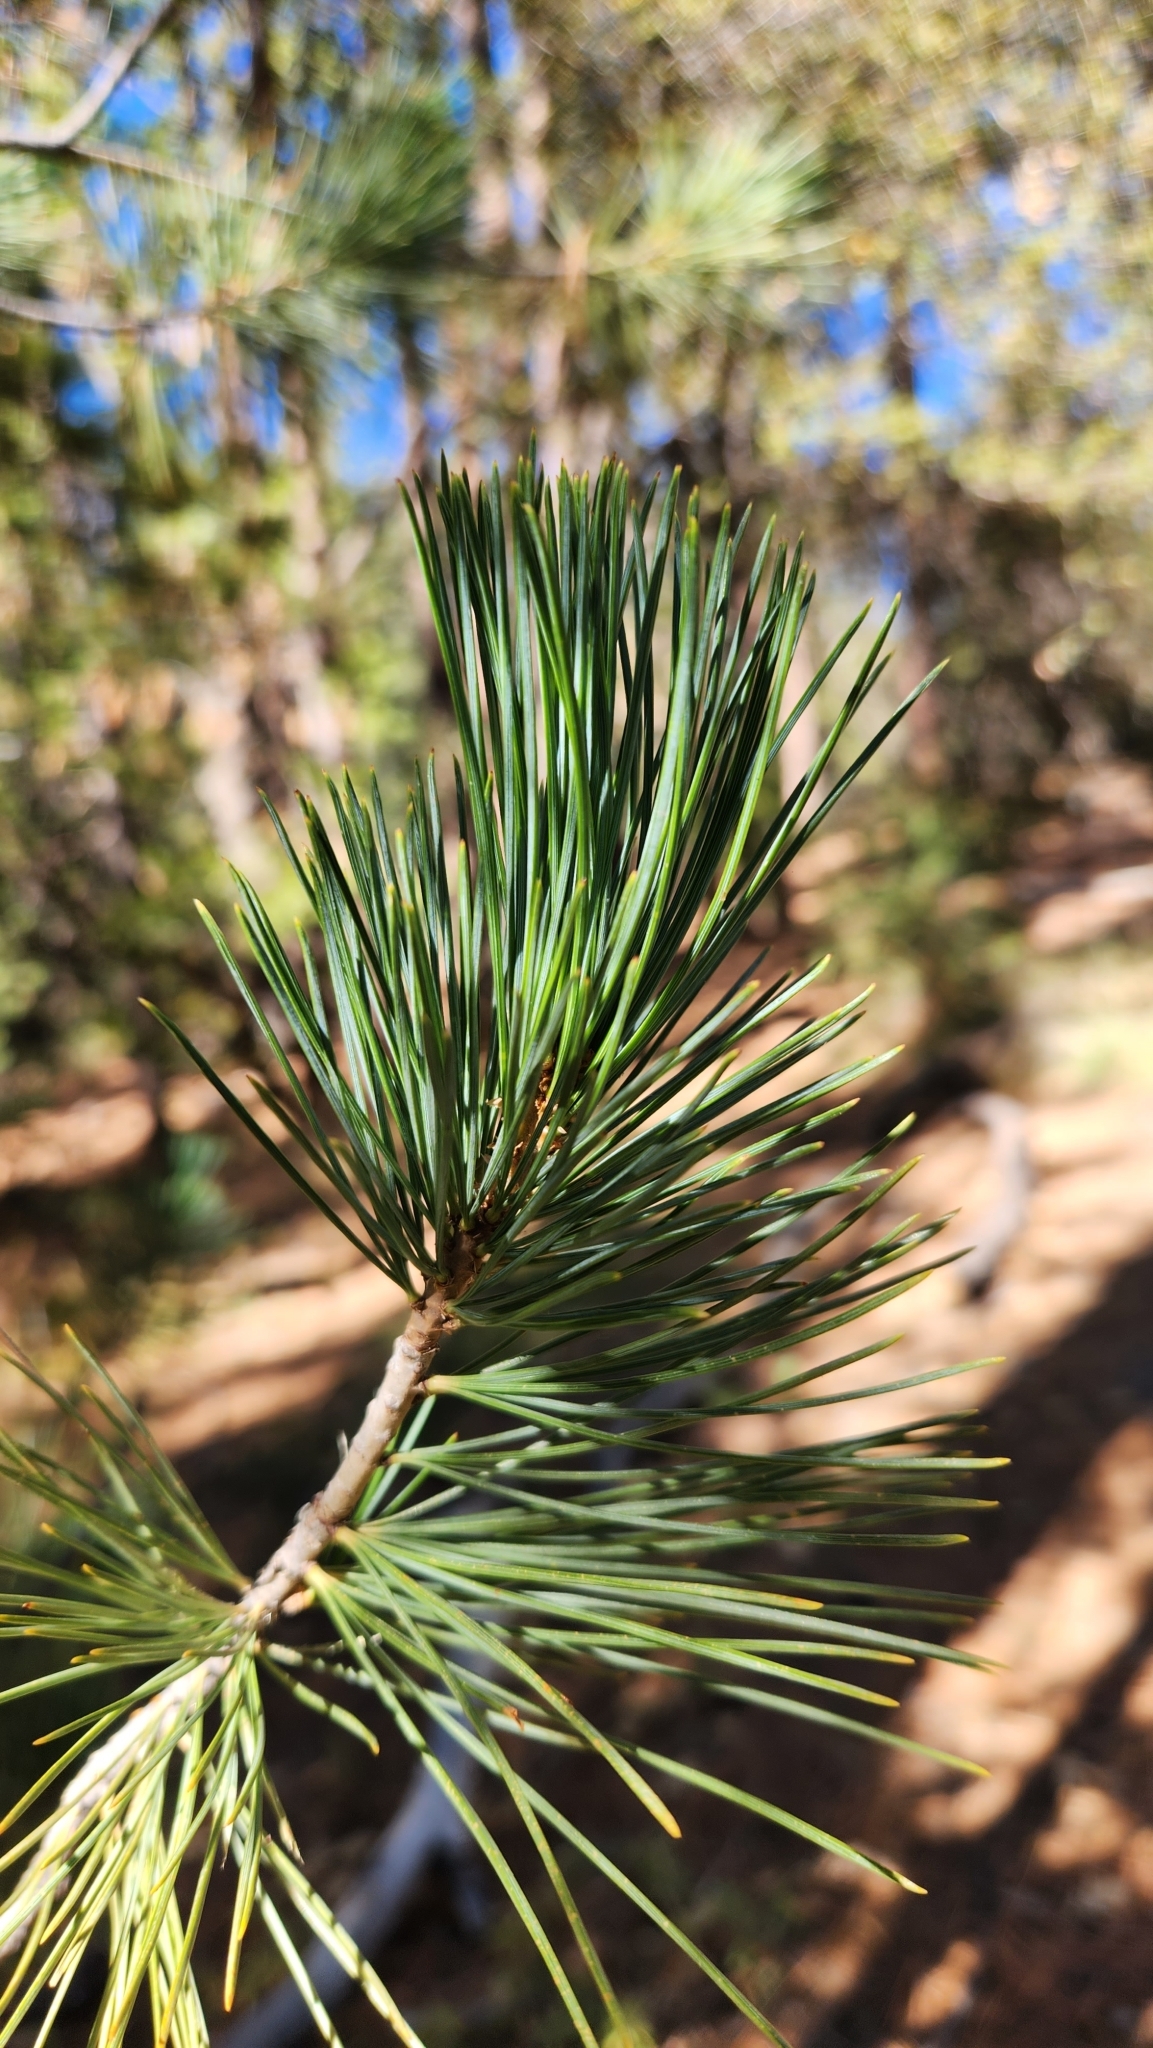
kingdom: Plantae
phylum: Tracheophyta
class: Pinopsida
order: Pinales
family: Pinaceae
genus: Pinus
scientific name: Pinus lambertiana
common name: Sugar pine
